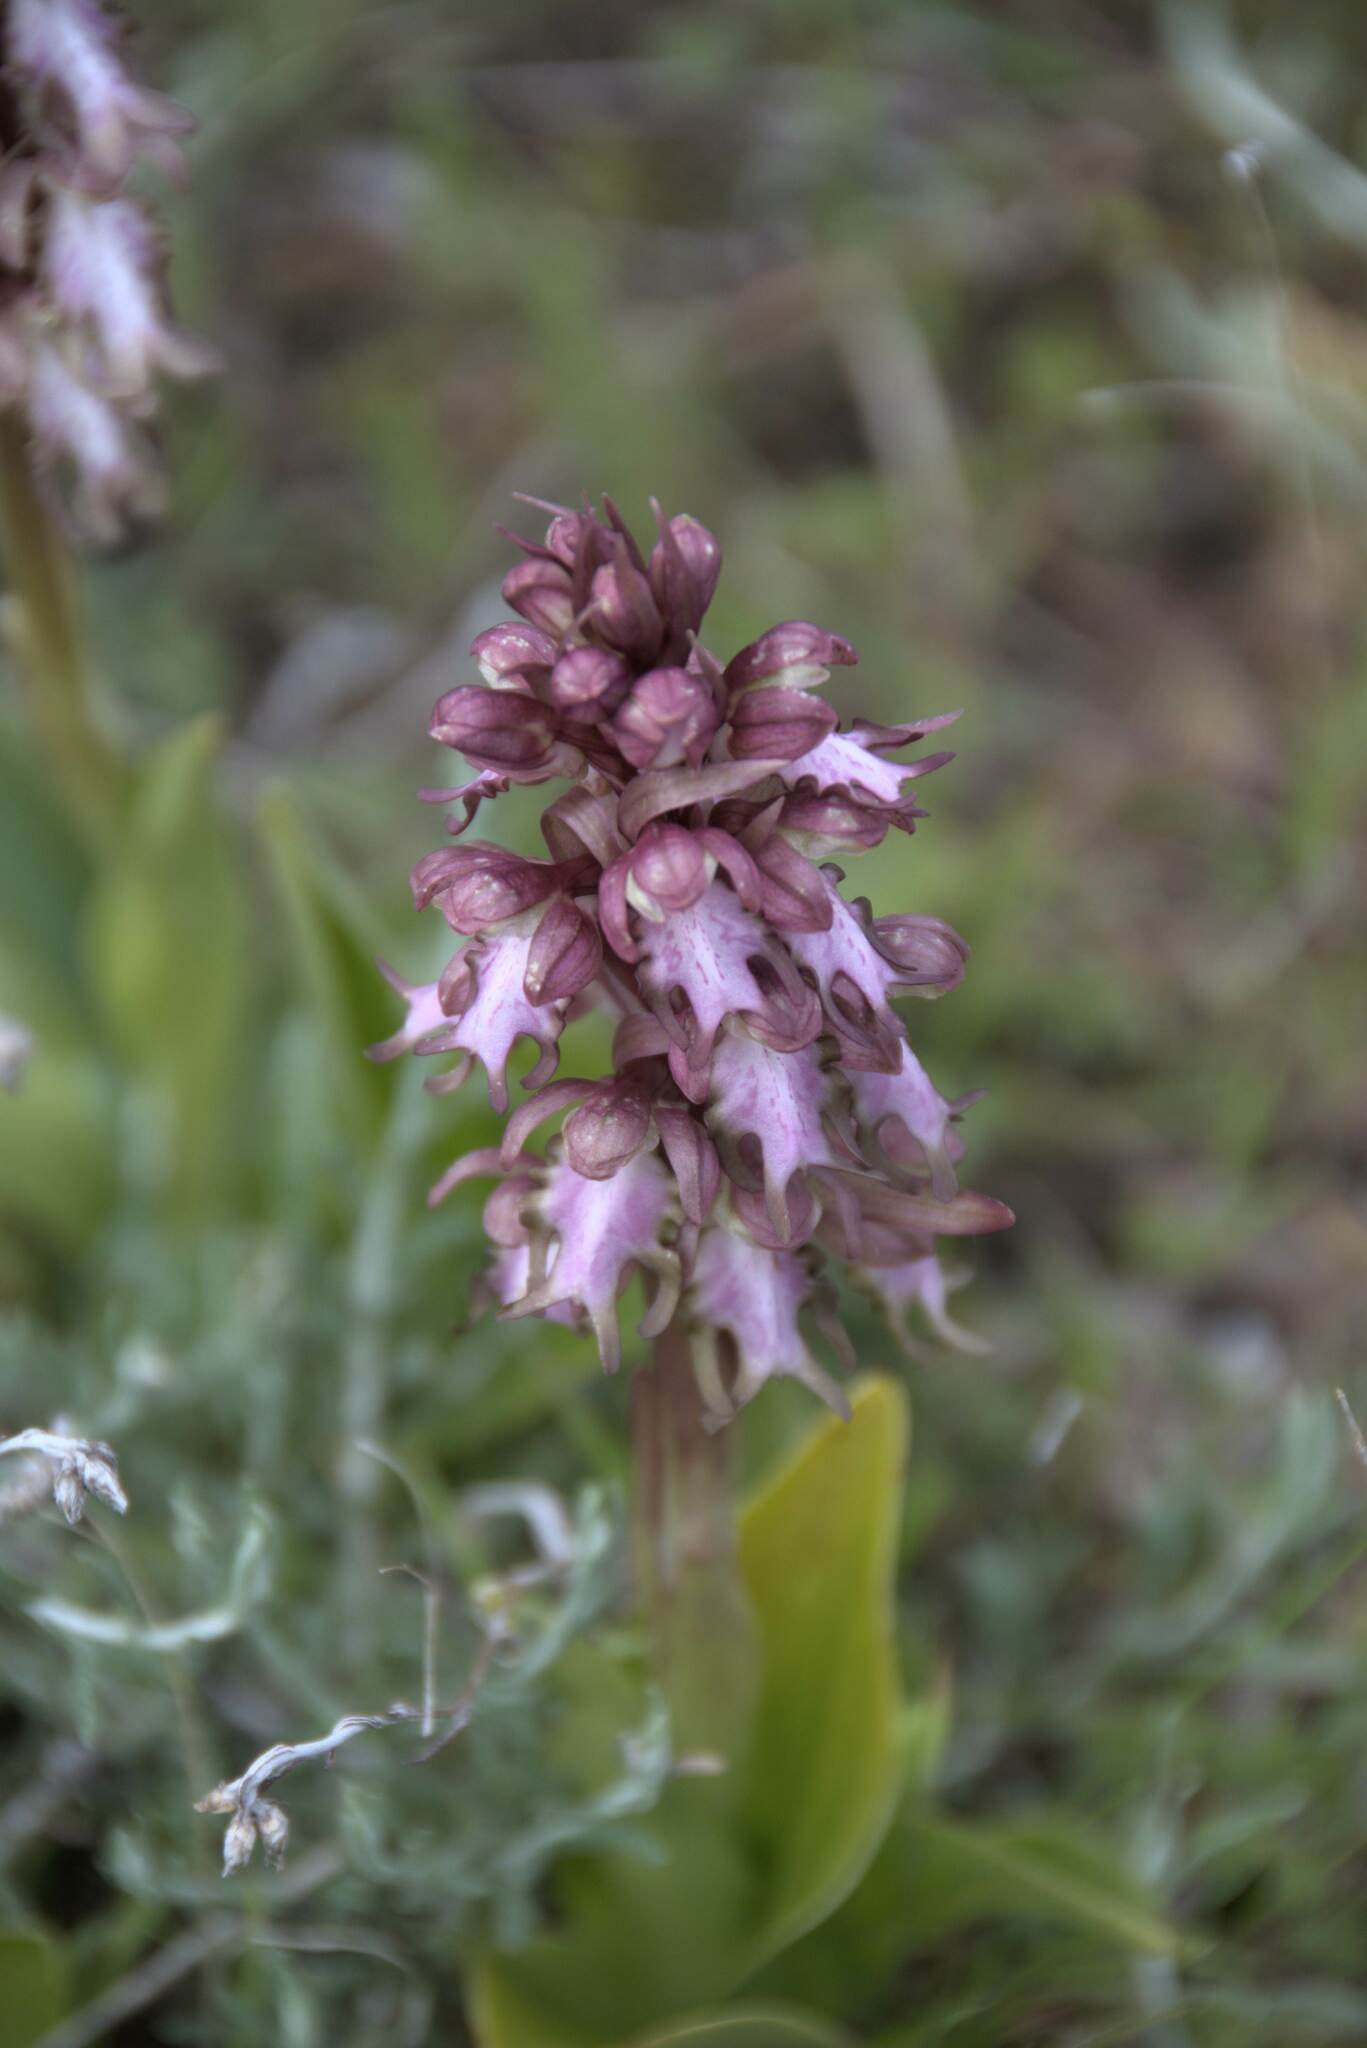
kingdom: Plantae
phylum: Tracheophyta
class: Liliopsida
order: Asparagales
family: Orchidaceae
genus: Himantoglossum
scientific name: Himantoglossum robertianum
